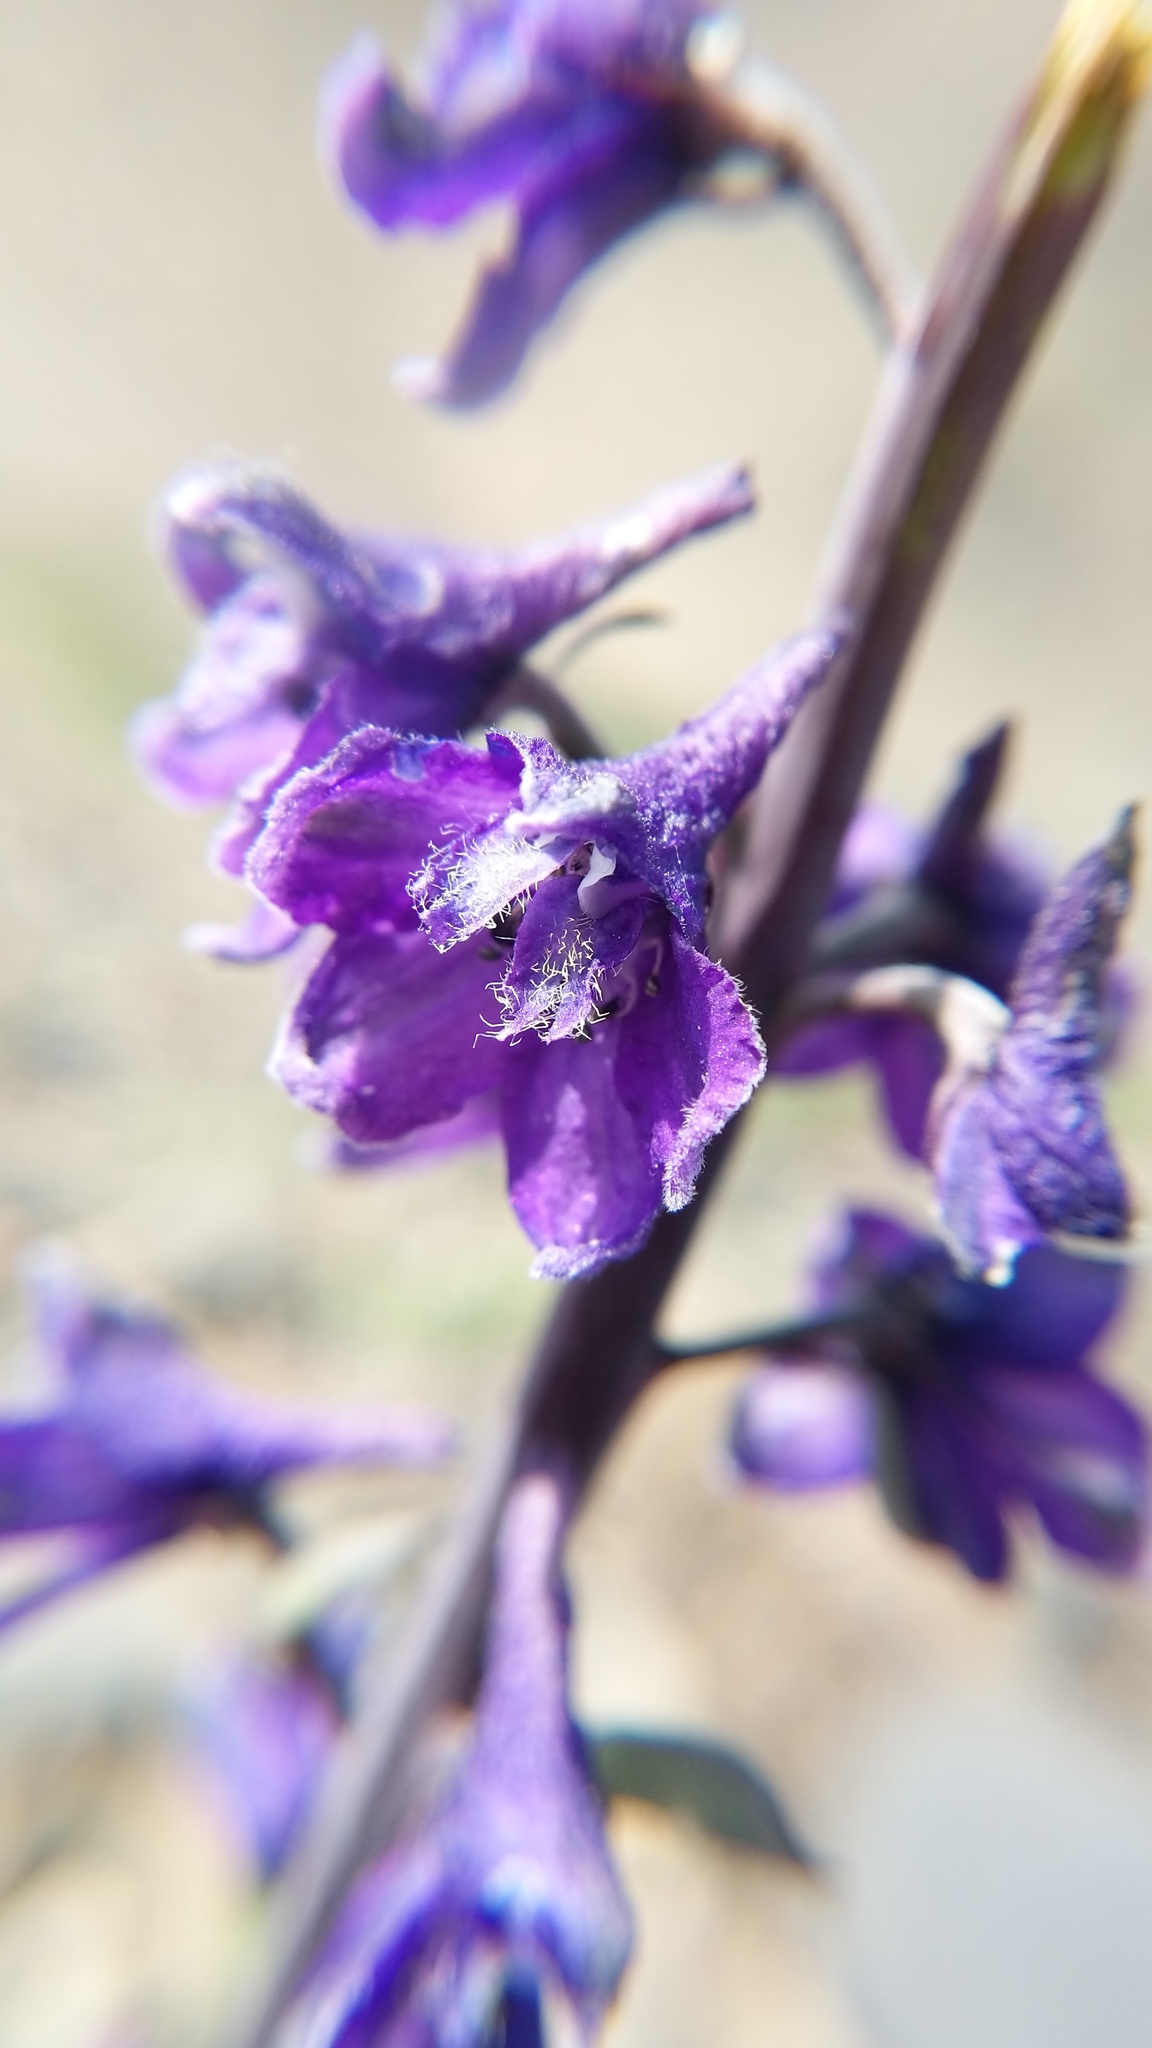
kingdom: Plantae
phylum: Tracheophyta
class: Magnoliopsida
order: Ranunculales
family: Ranunculaceae
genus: Delphinium
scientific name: Delphinium glaucum
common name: Brown's larkspur
